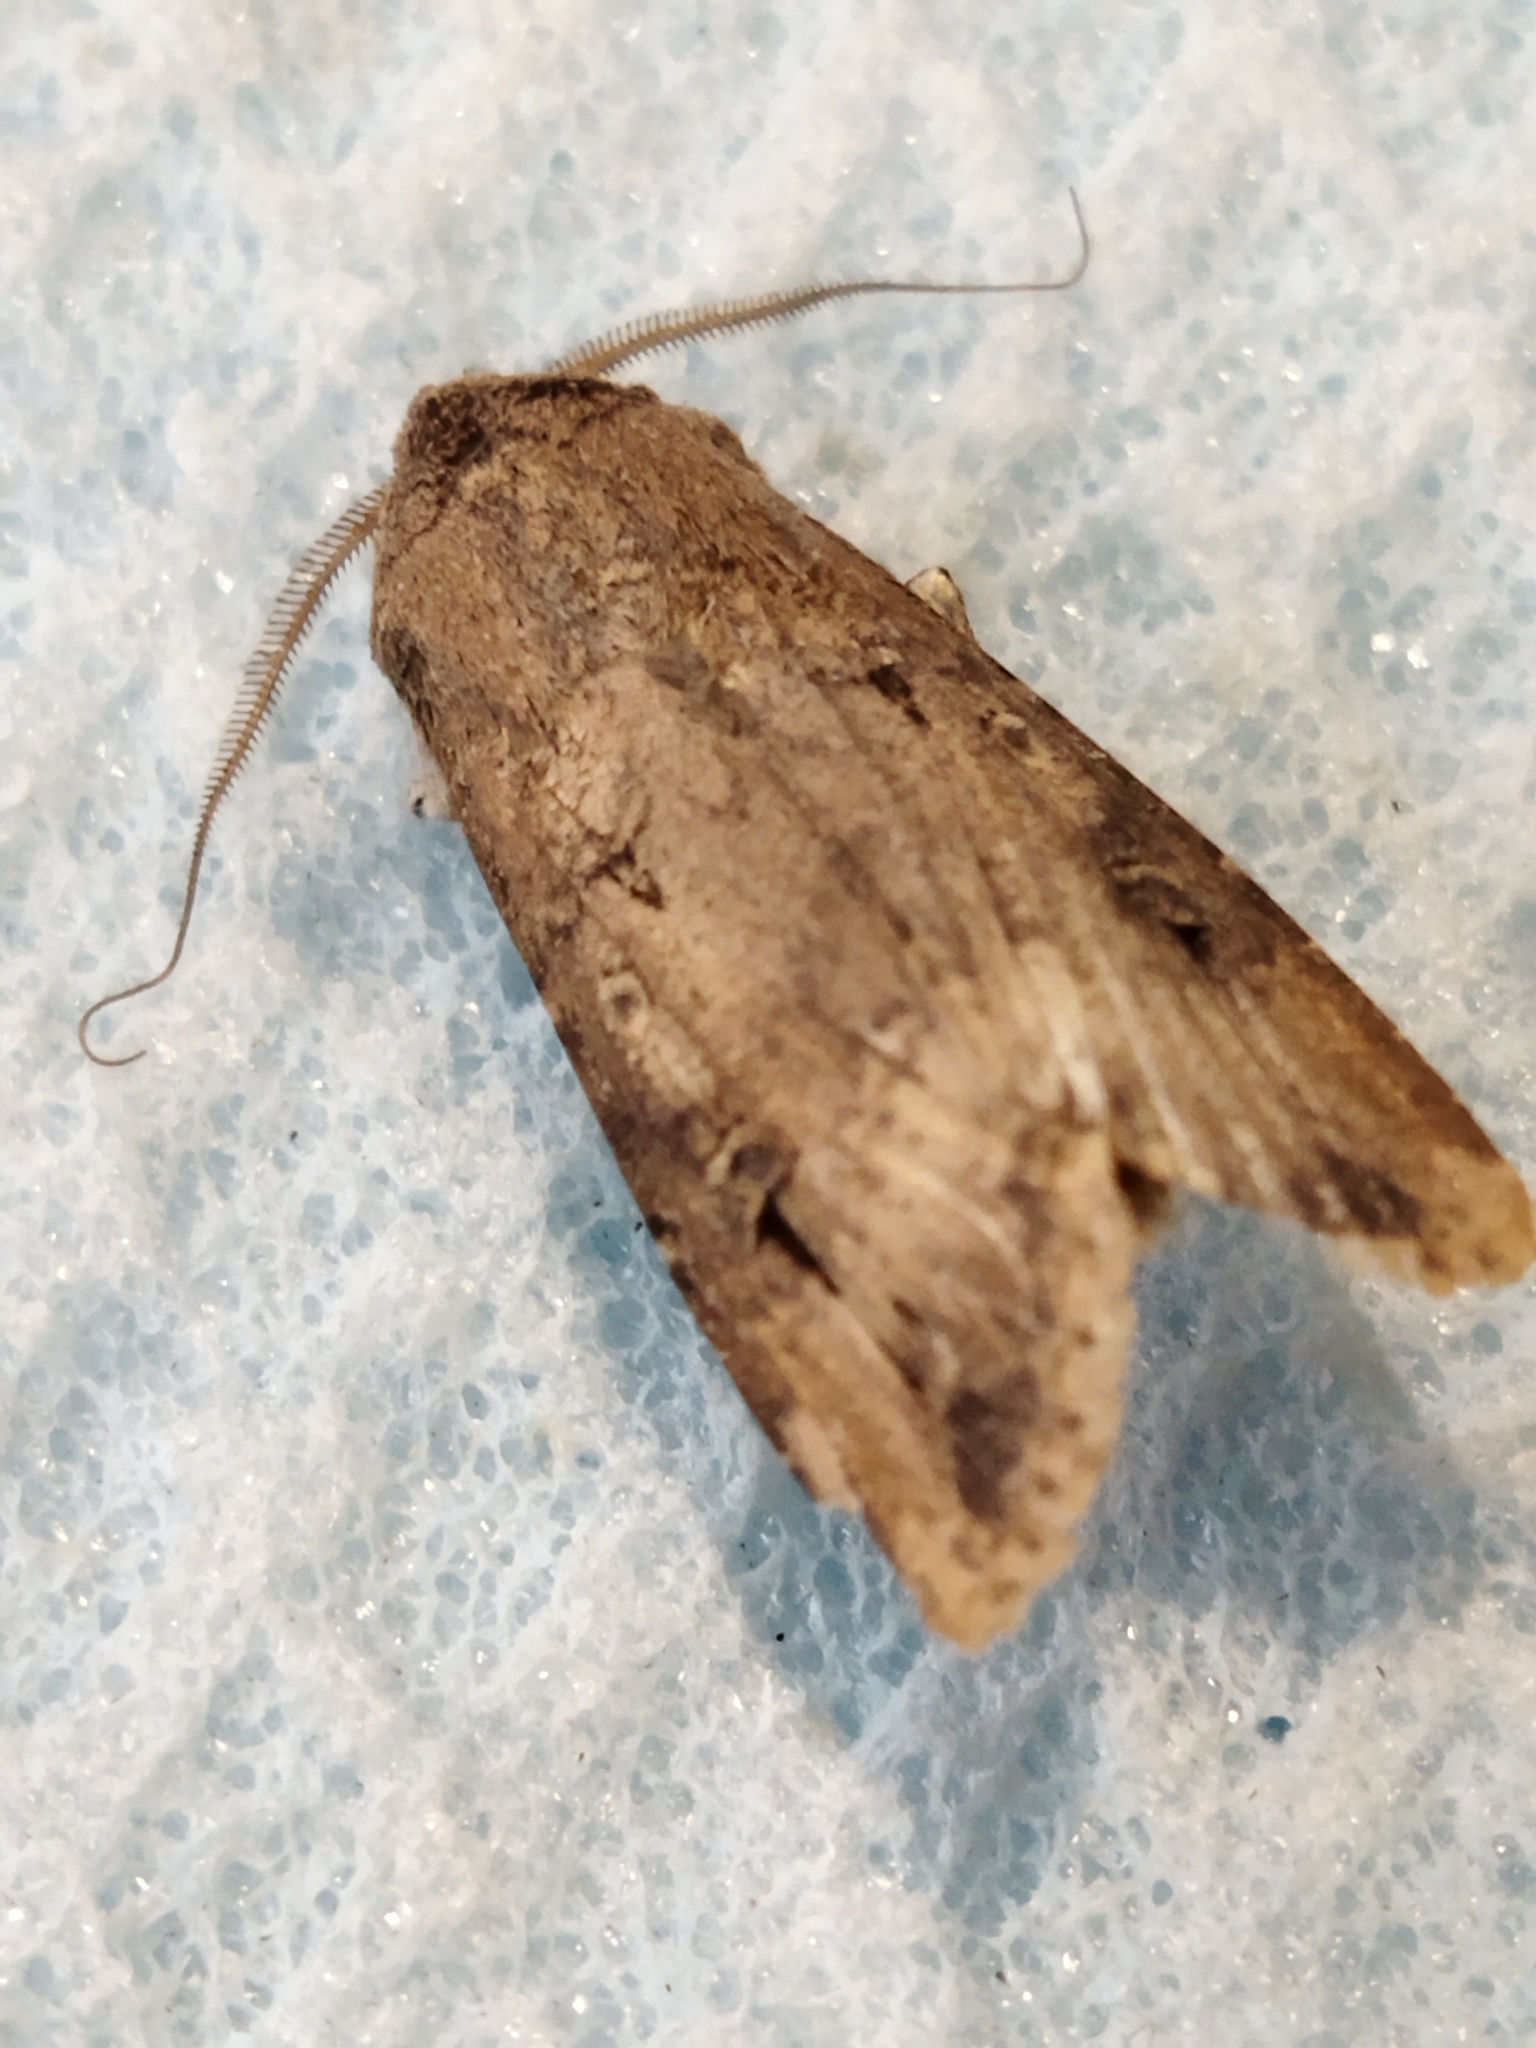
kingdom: Animalia
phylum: Arthropoda
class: Insecta
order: Lepidoptera
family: Noctuidae
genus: Agrotis
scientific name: Agrotis ipsilon
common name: Dark sword-grass
